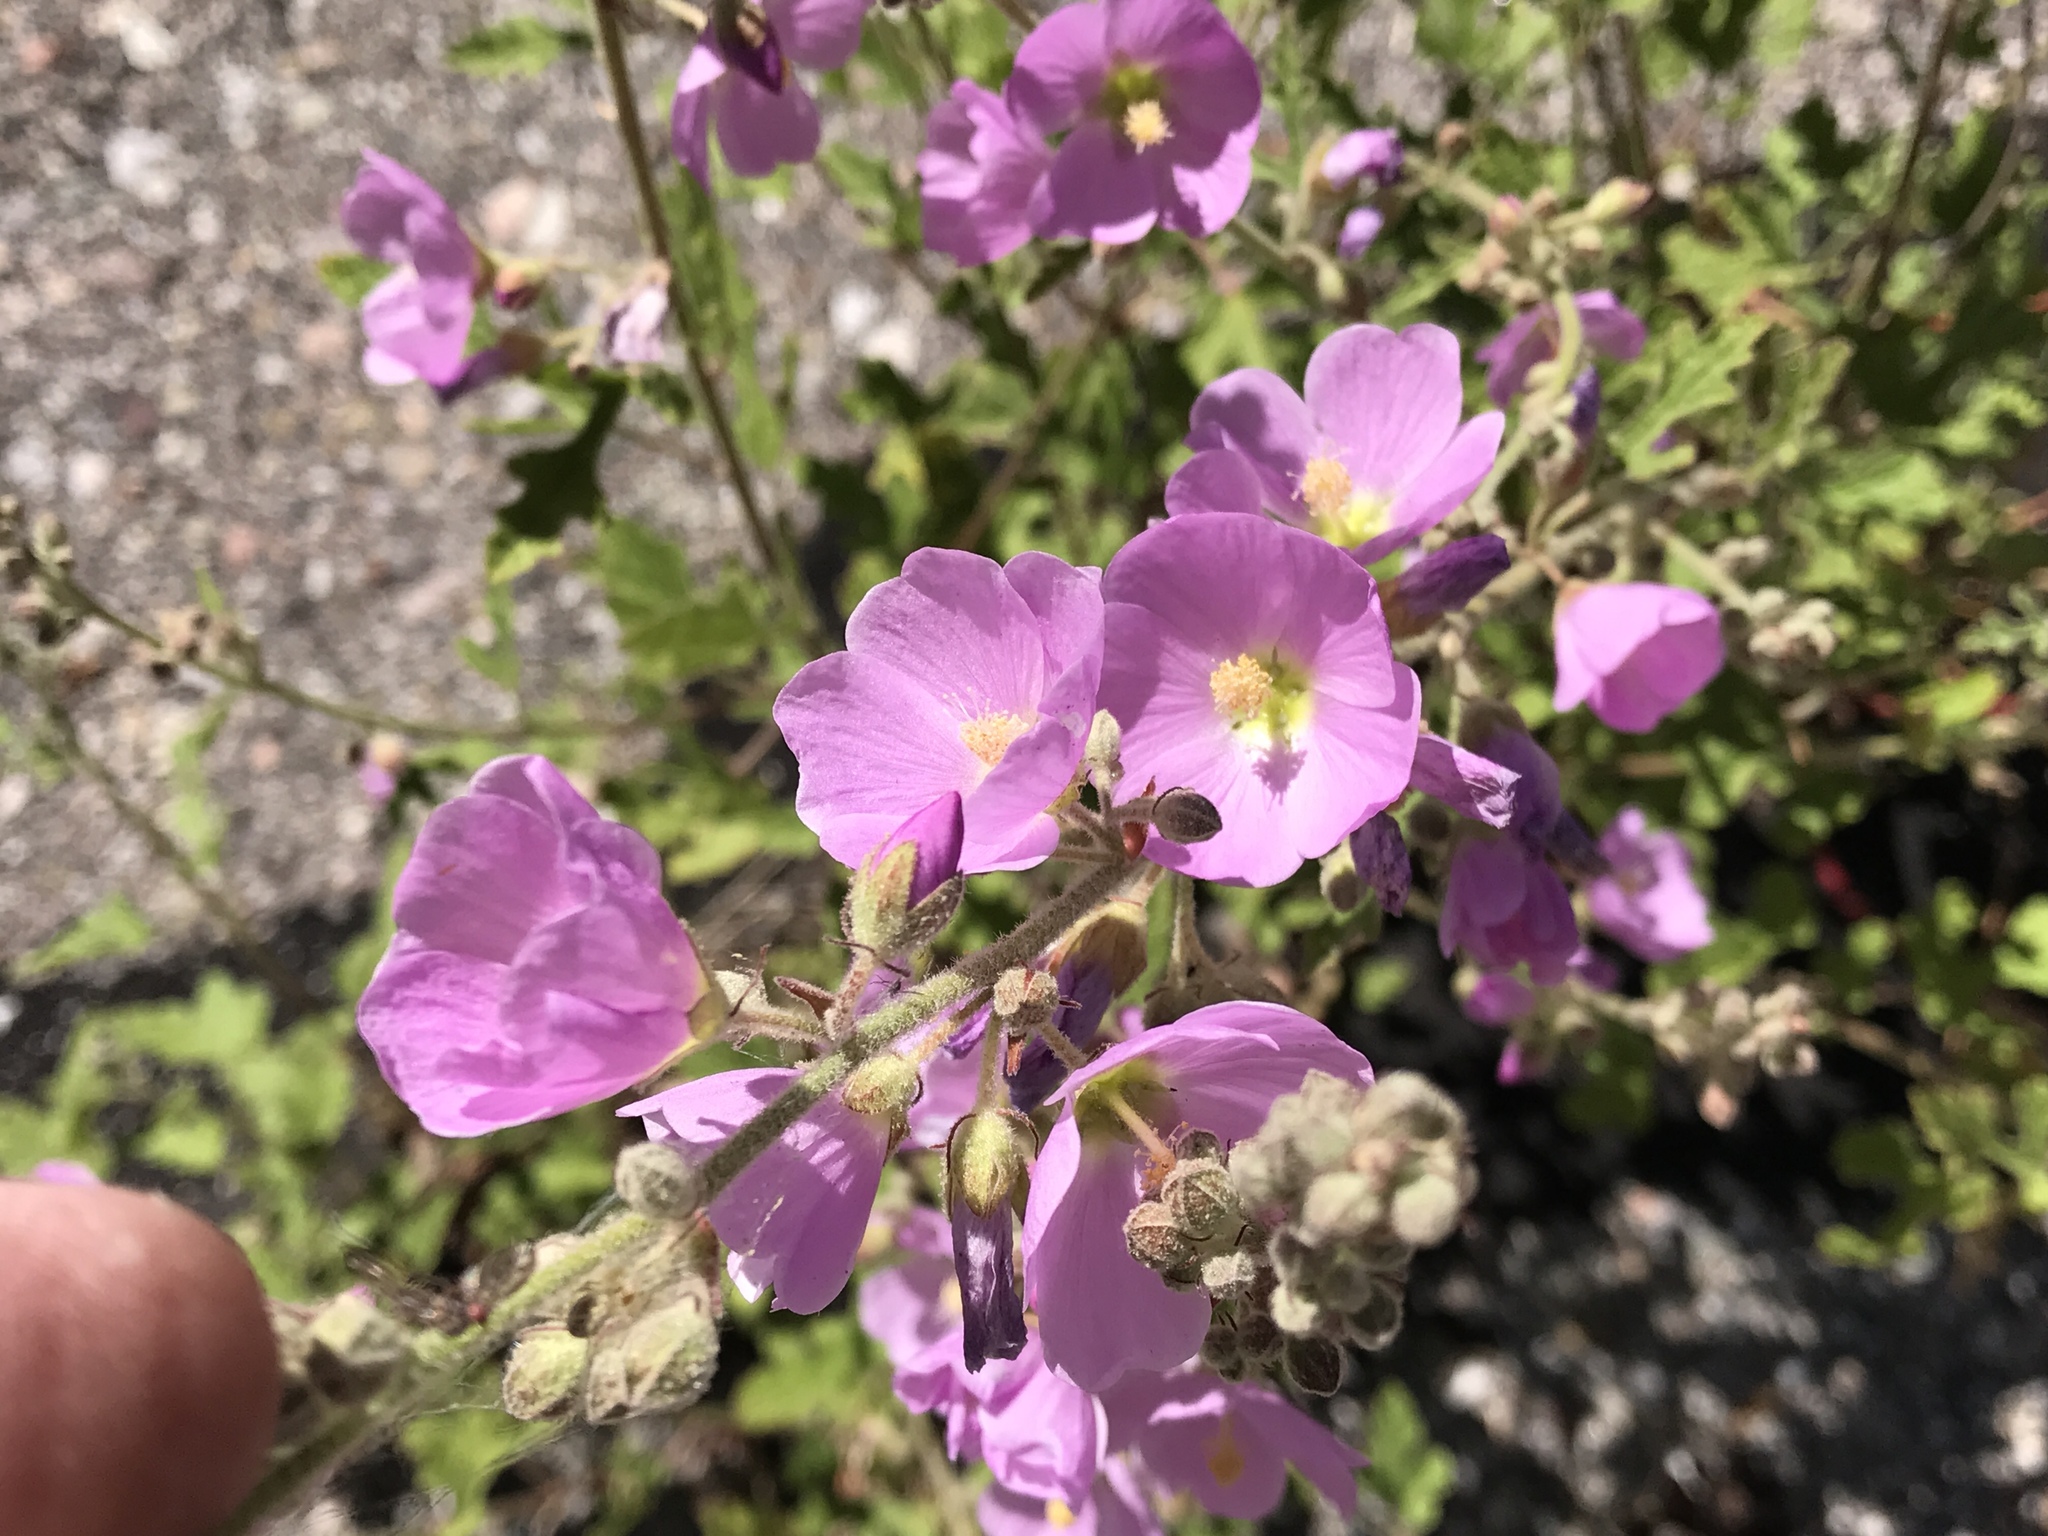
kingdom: Plantae
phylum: Tracheophyta
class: Magnoliopsida
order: Malvales
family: Malvaceae
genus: Sphaeralcea
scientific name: Sphaeralcea fendleri
